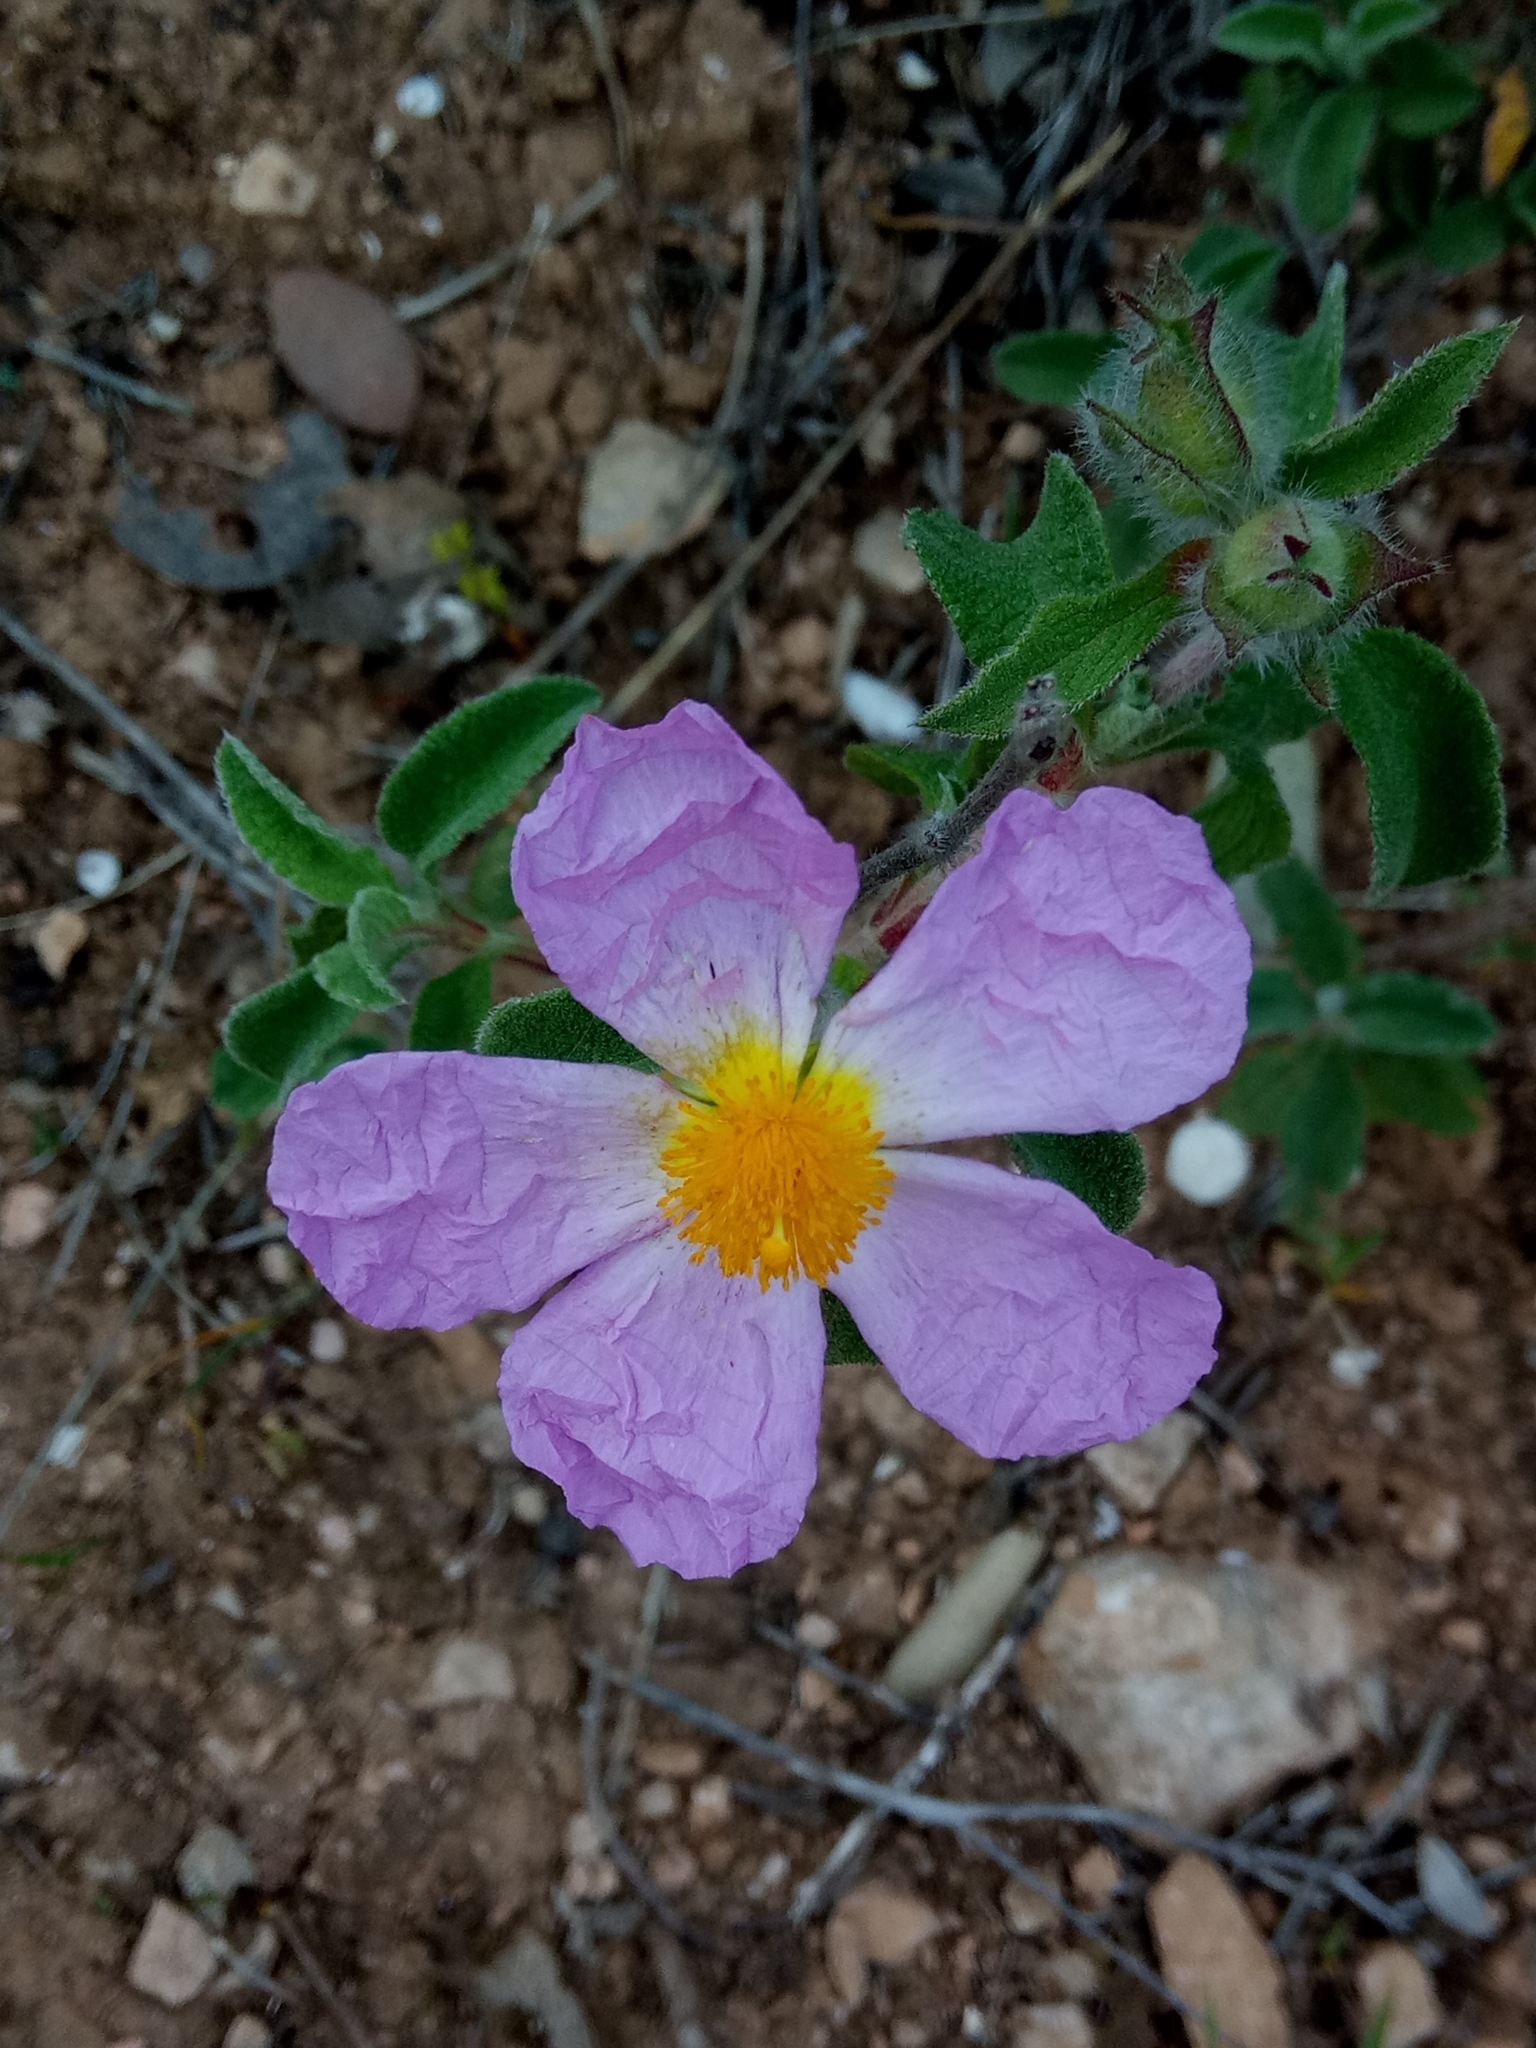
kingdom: Plantae
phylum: Tracheophyta
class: Magnoliopsida
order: Malvales
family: Cistaceae
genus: Cistus
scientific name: Cistus creticus
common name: Cretan rockrose
